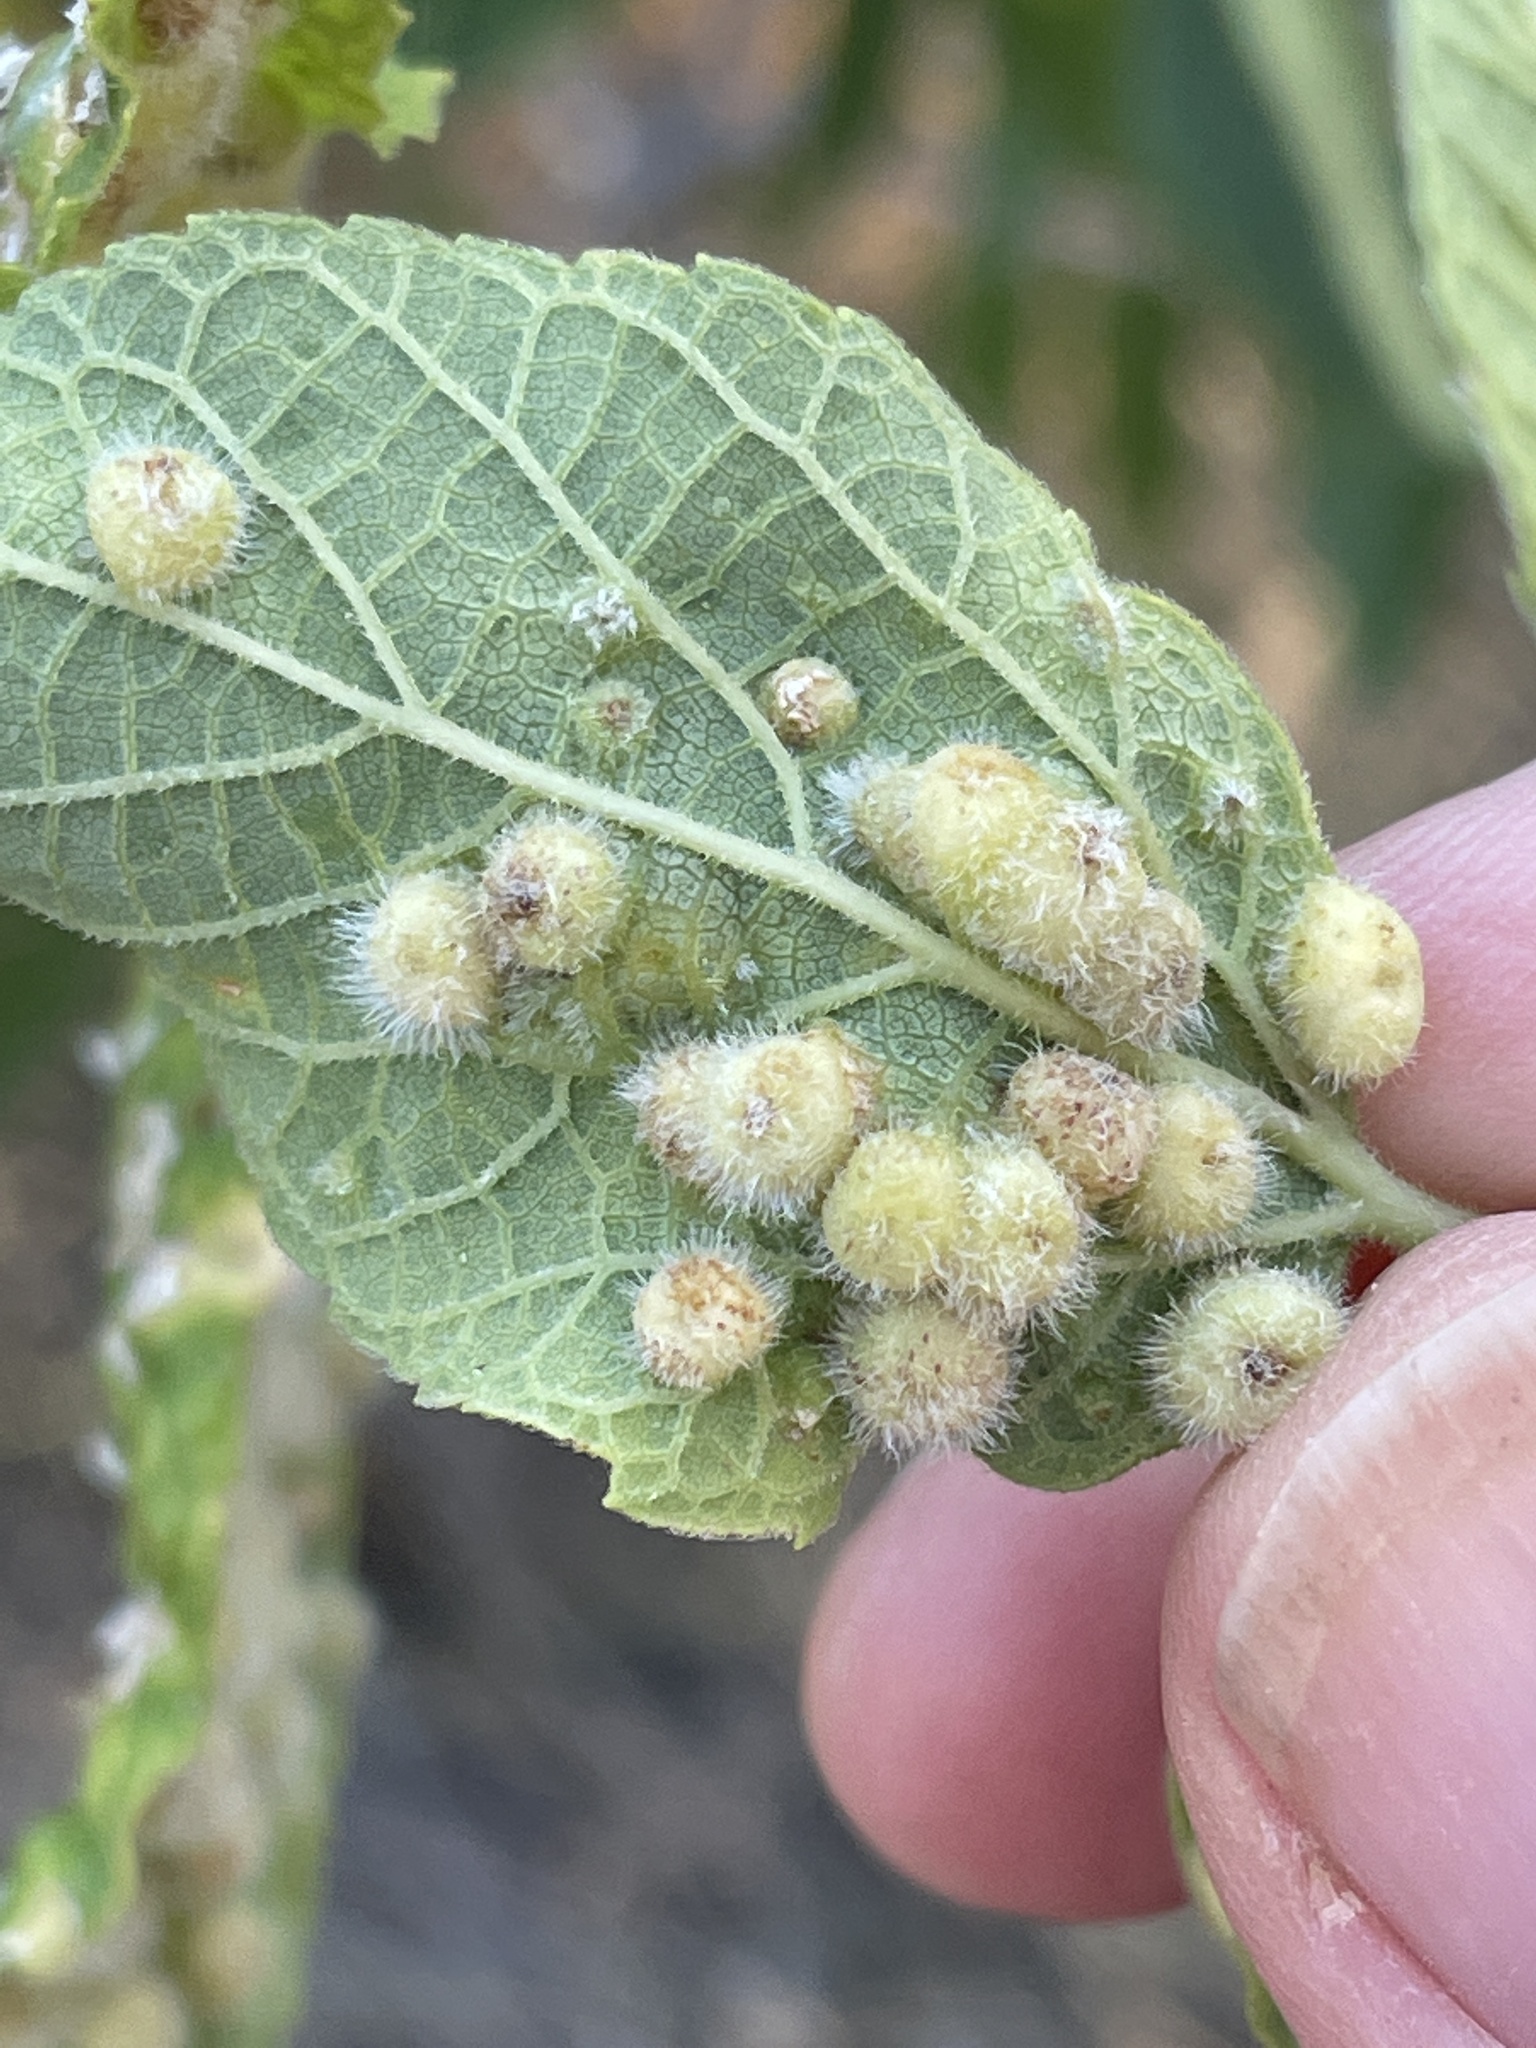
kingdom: Animalia
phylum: Arthropoda
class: Insecta
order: Hemiptera
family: Aphalaridae
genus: Pachypsylla
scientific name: Pachypsylla celtidismamma
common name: Hackberry nipplegall psyllid
